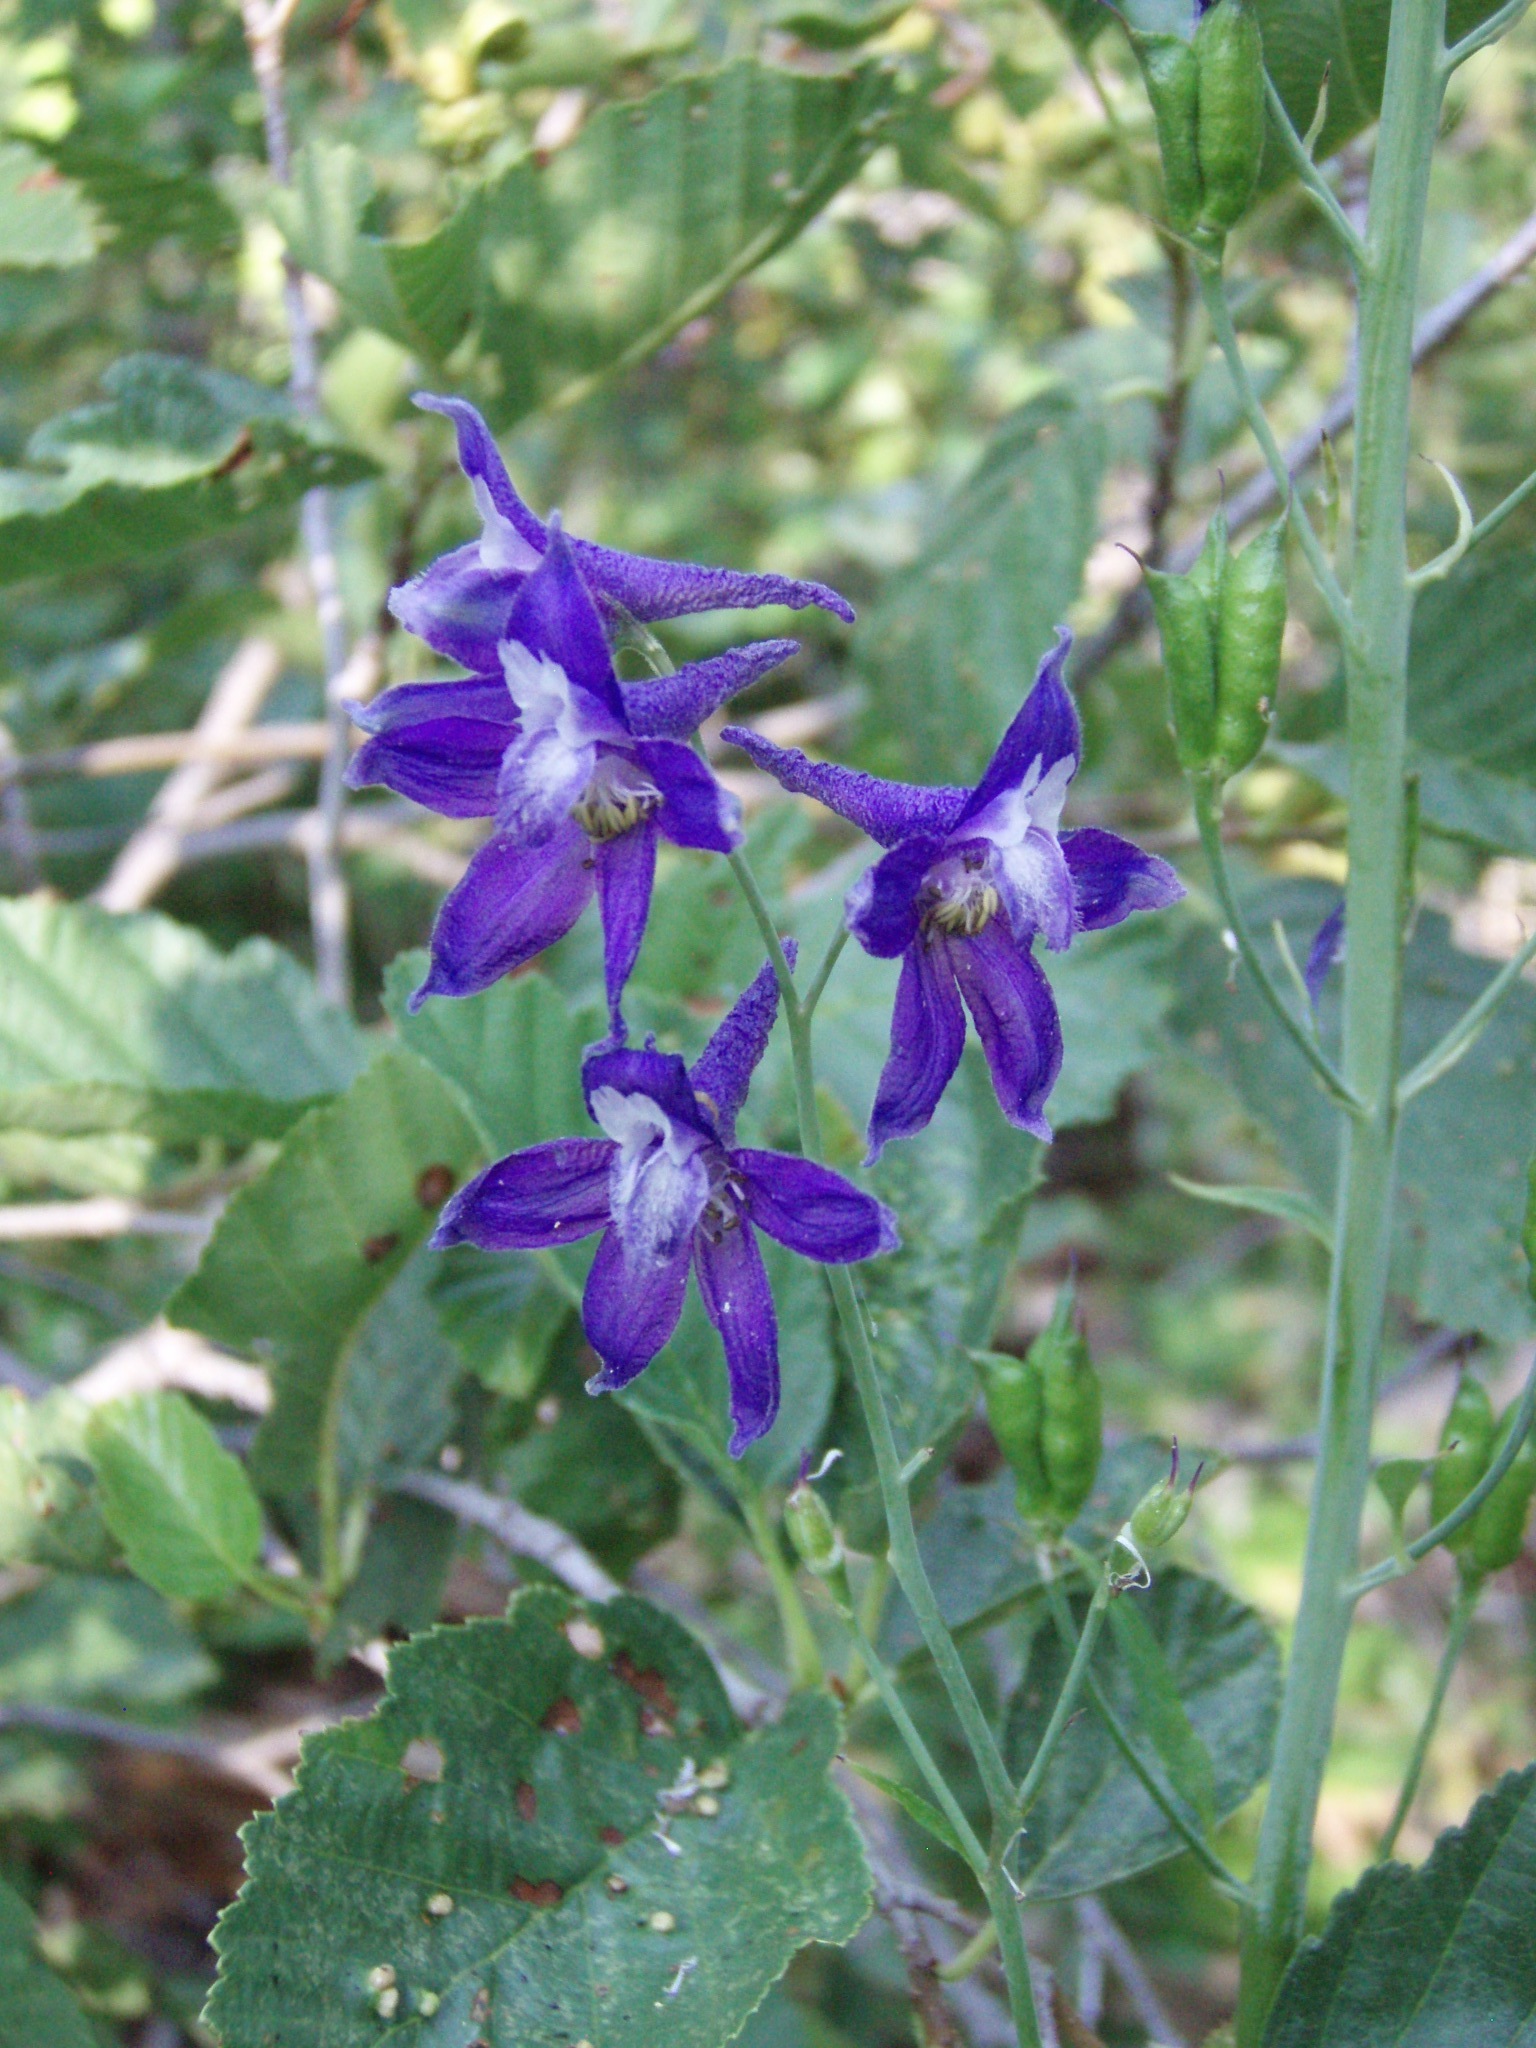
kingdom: Plantae
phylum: Tracheophyta
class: Magnoliopsida
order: Ranunculales
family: Ranunculaceae
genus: Delphinium
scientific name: Delphinium glaucum
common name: Brown's larkspur
